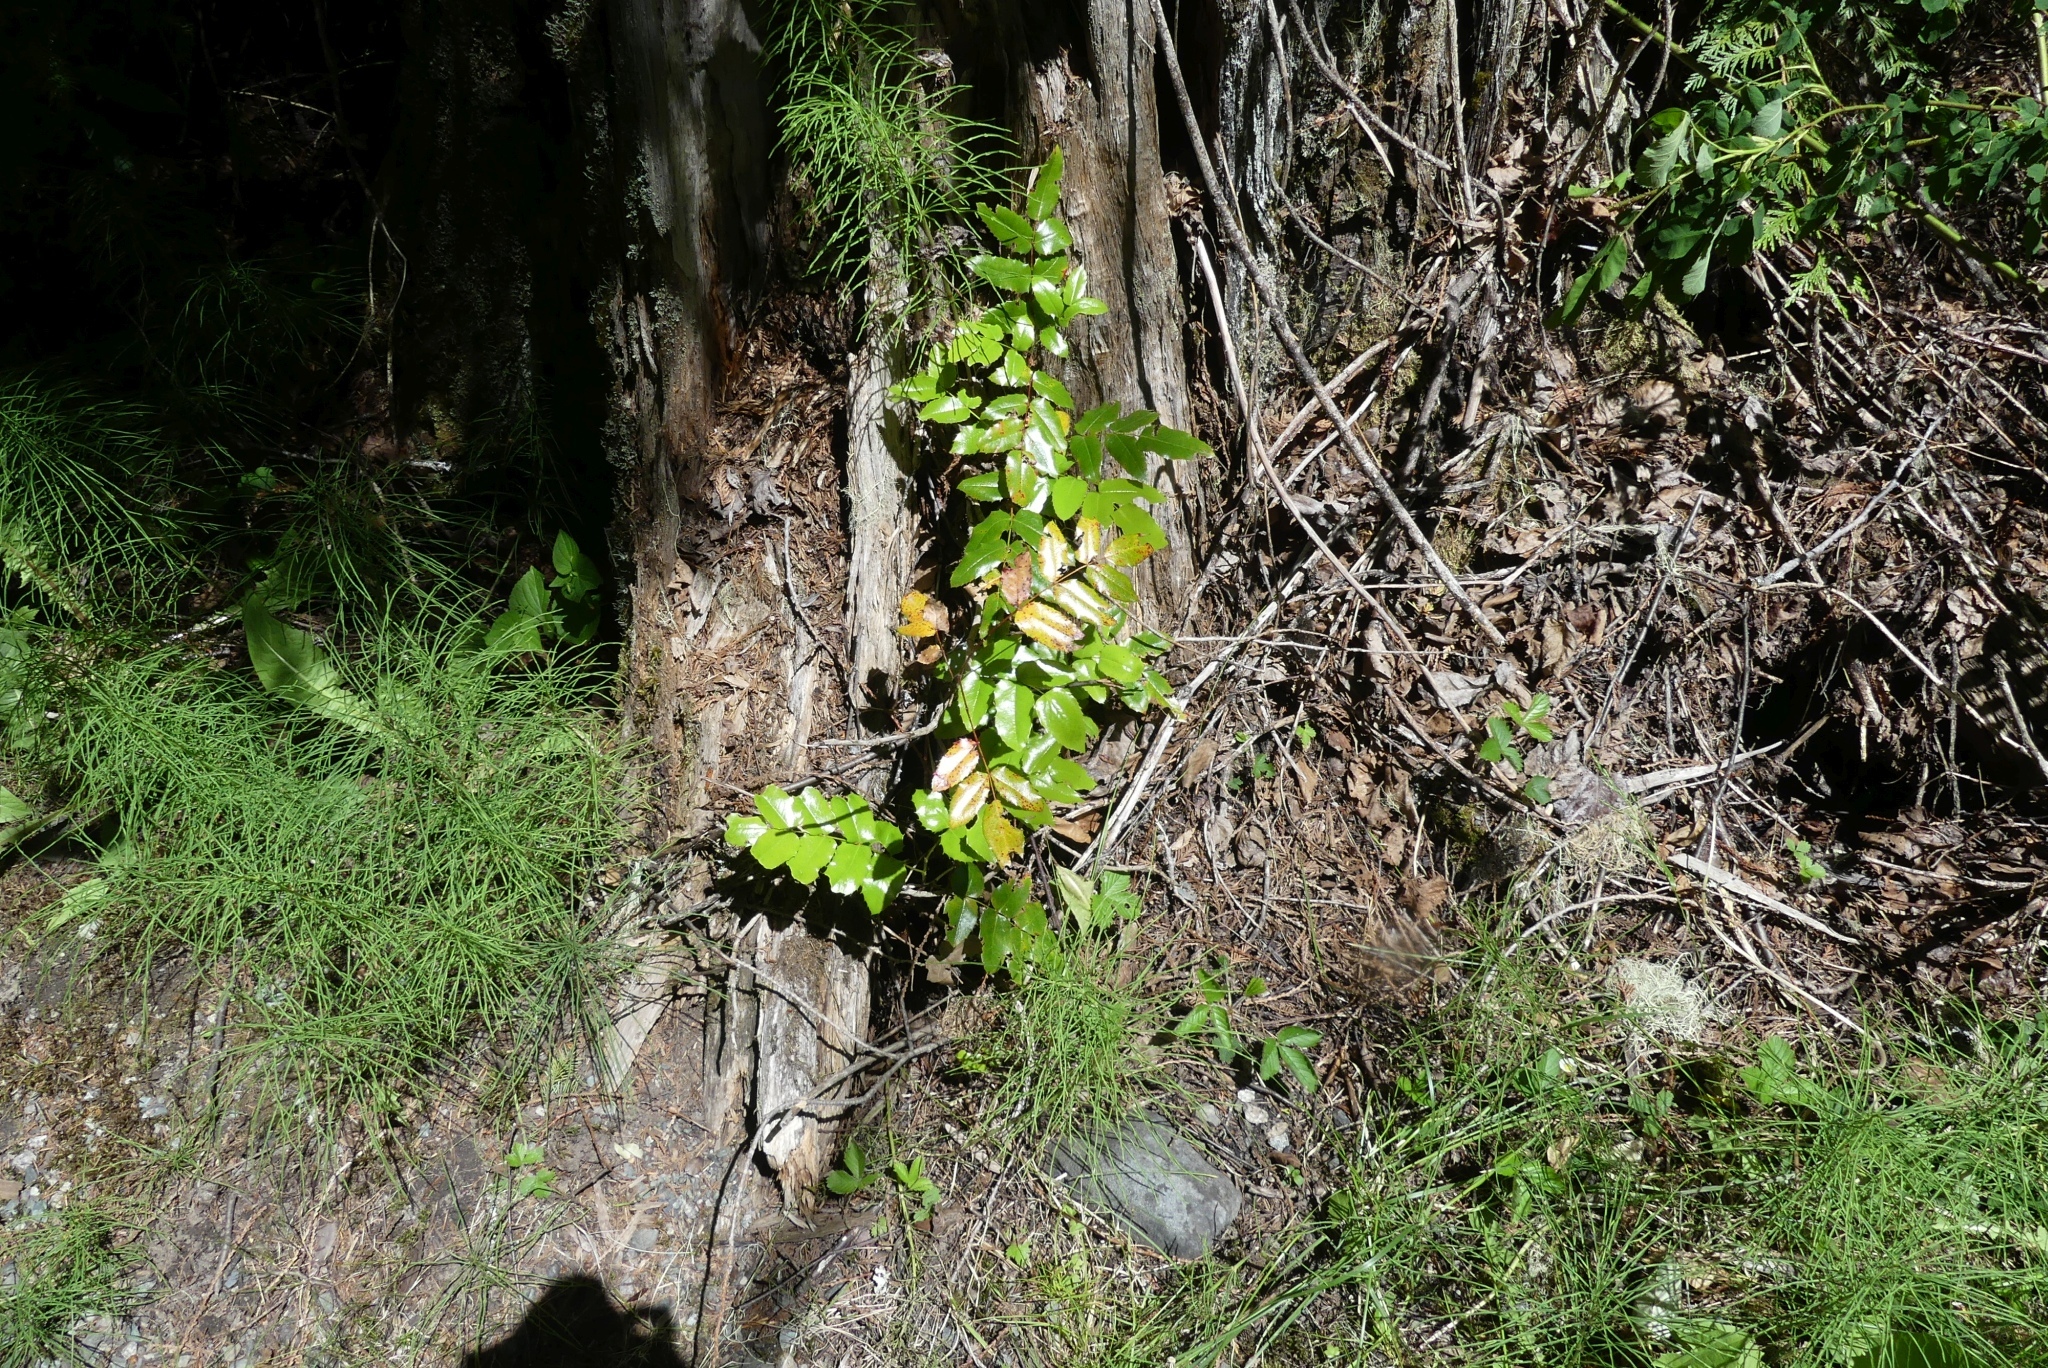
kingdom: Plantae
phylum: Tracheophyta
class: Magnoliopsida
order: Ranunculales
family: Berberidaceae
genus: Mahonia
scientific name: Mahonia aquifolium
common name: Oregon-grape
